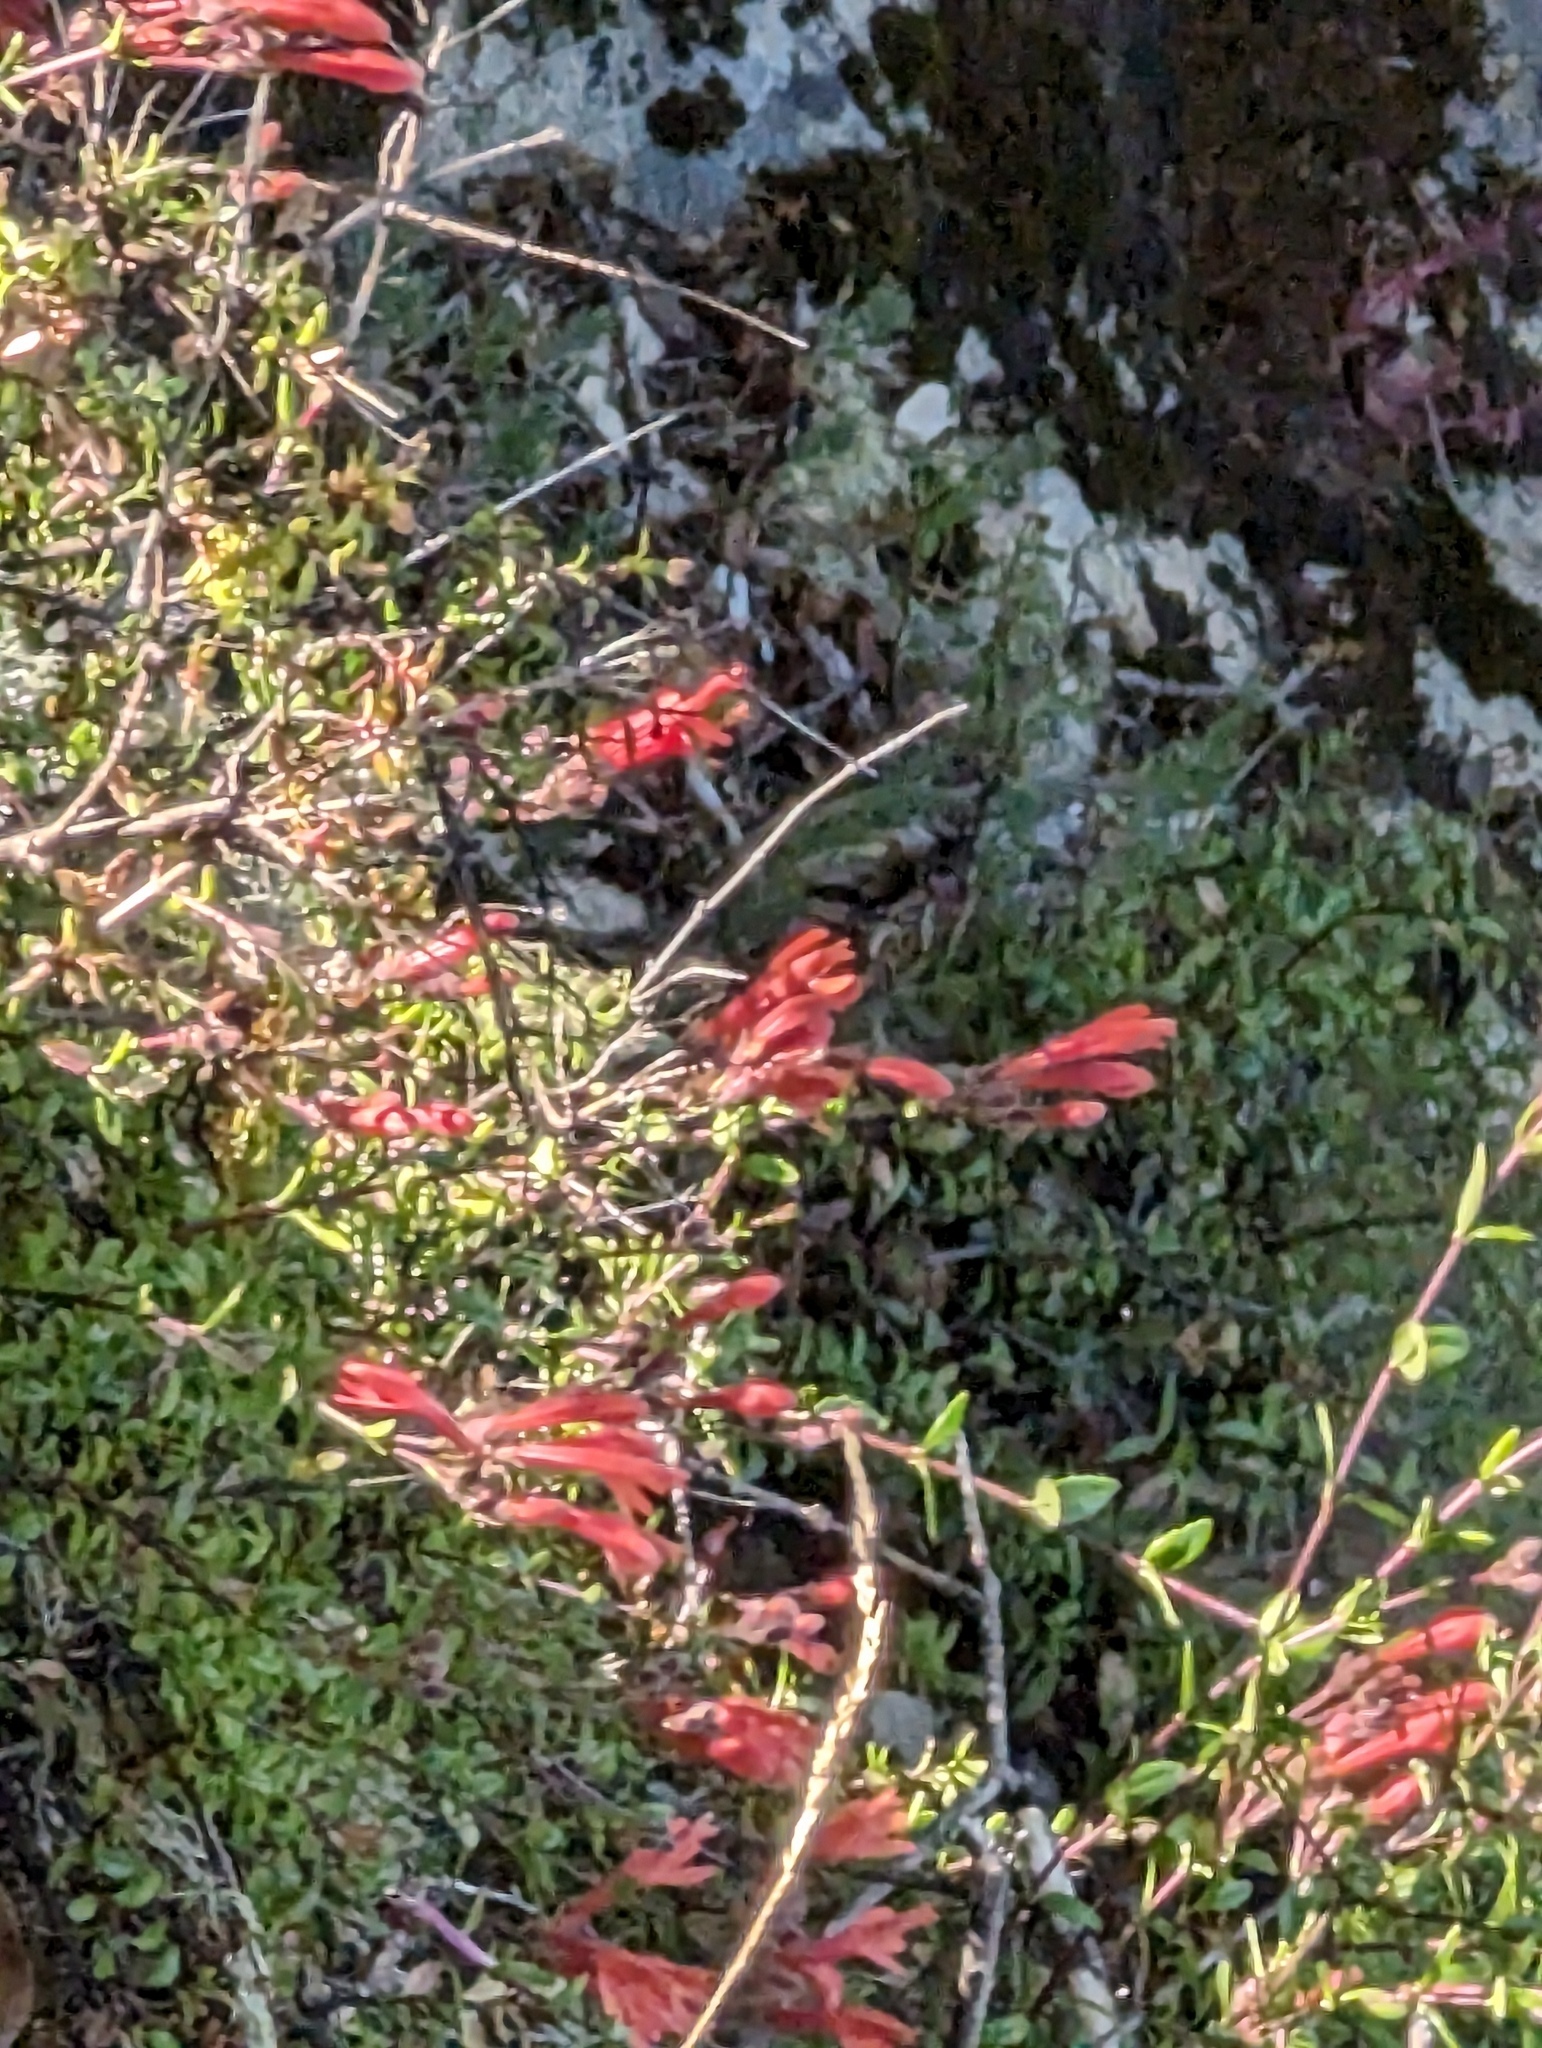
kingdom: Plantae
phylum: Tracheophyta
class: Magnoliopsida
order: Lamiales
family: Plantaginaceae
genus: Keckiella
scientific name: Keckiella corymbosa
